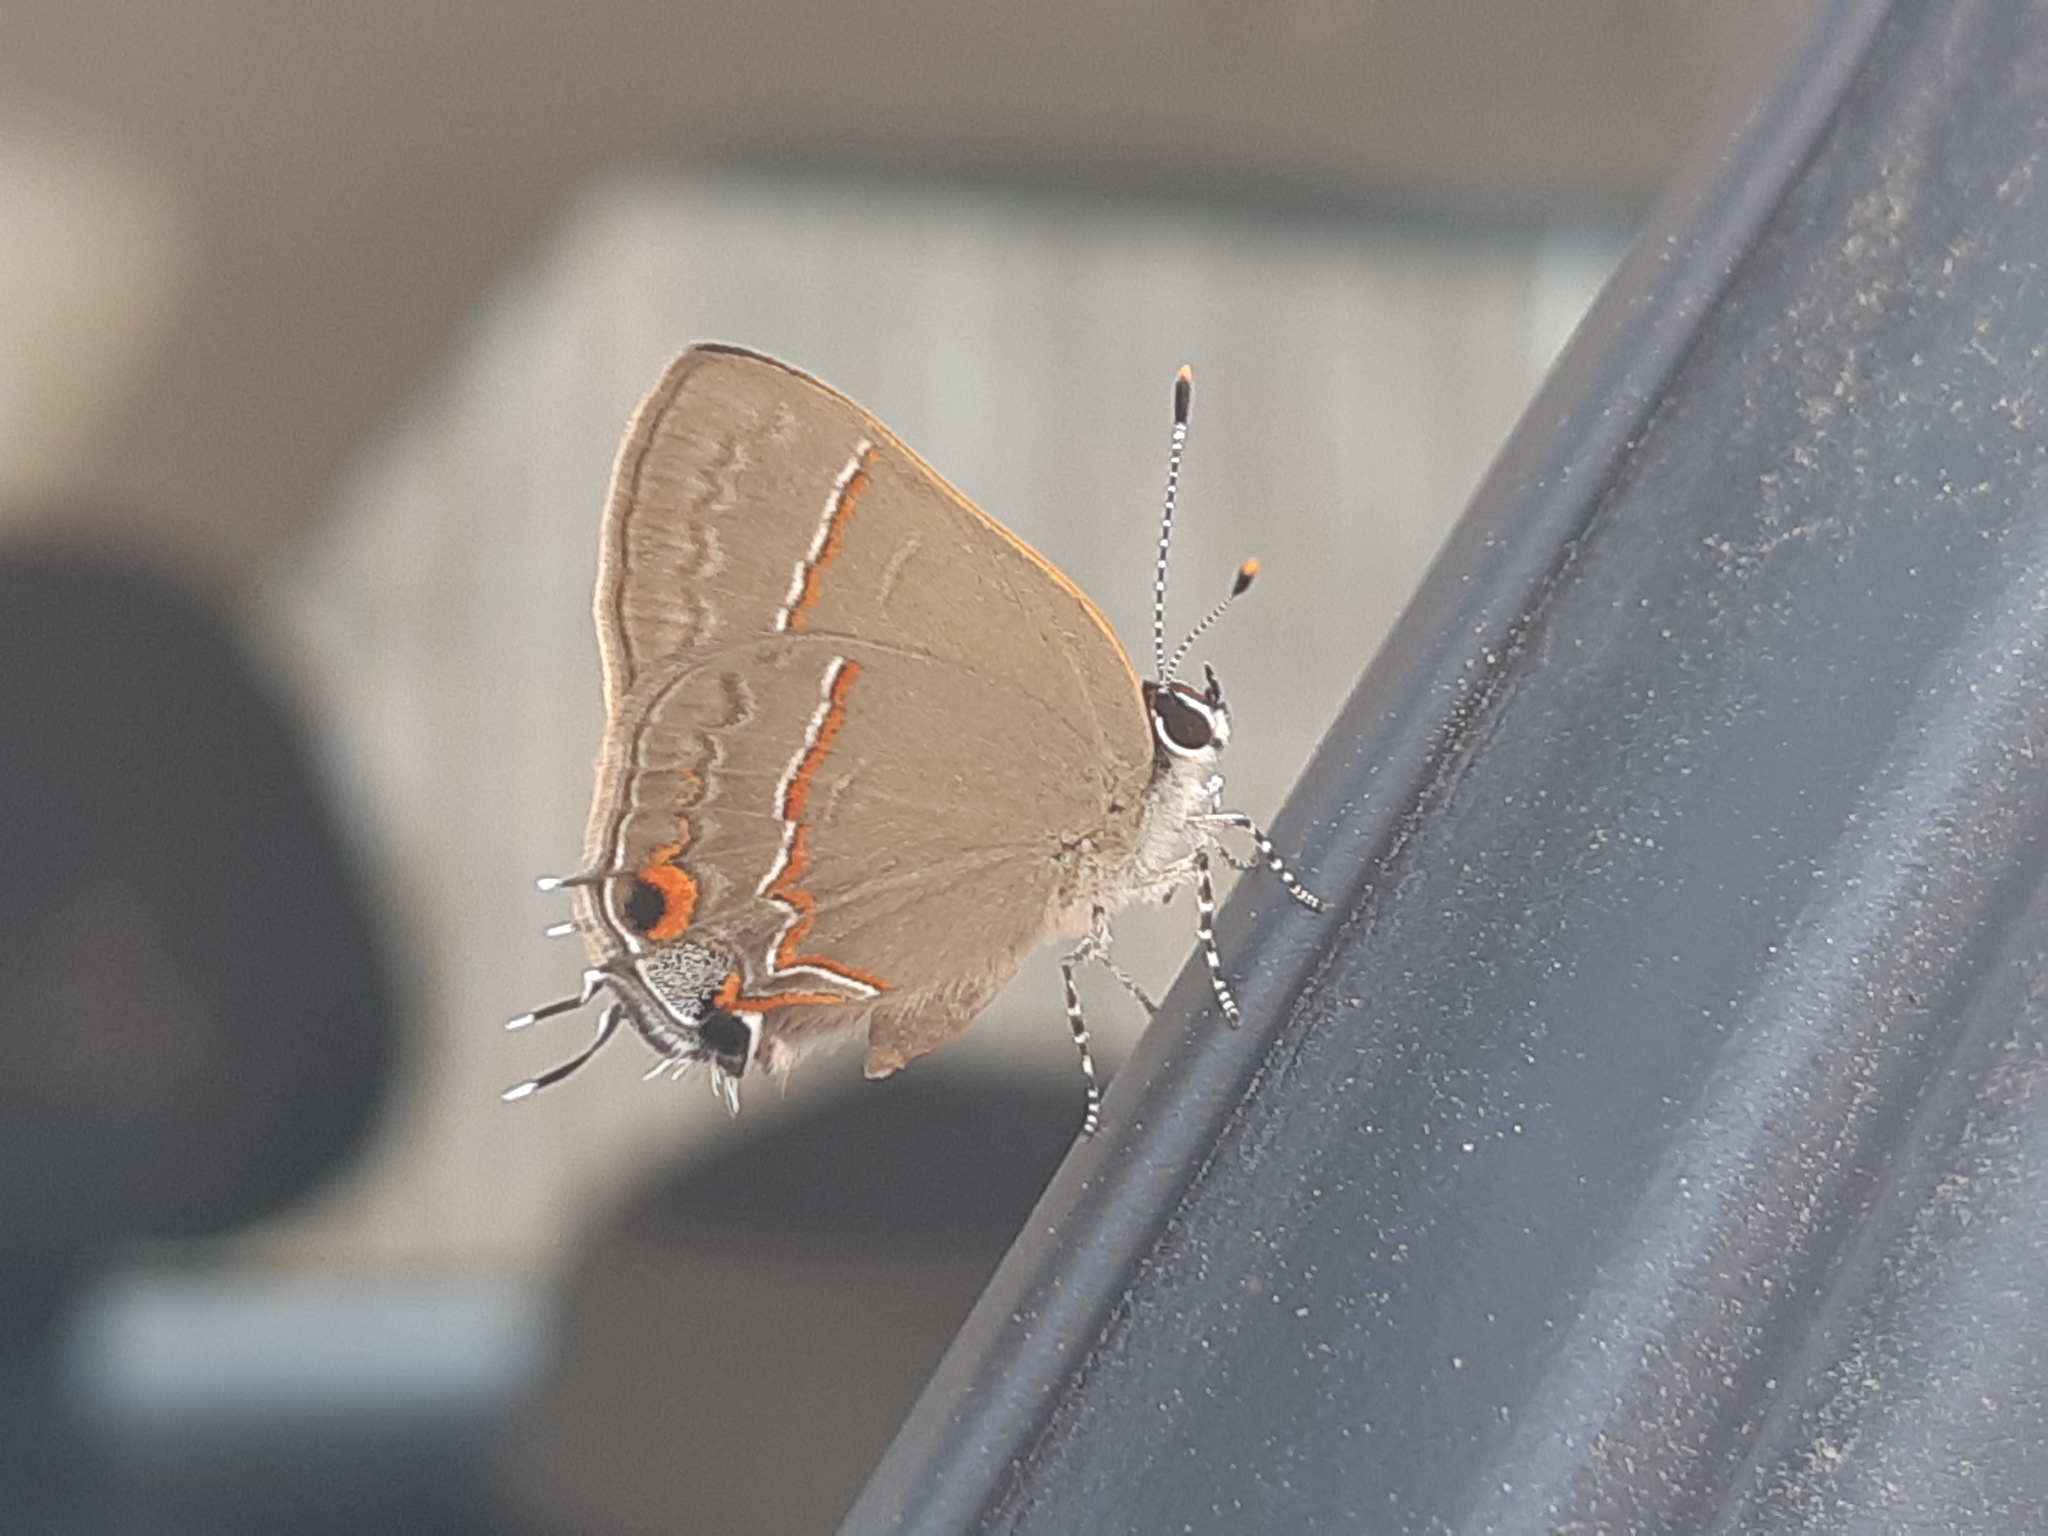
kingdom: Animalia
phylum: Arthropoda
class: Insecta
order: Lepidoptera
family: Lycaenidae
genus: Electrostrymon
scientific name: Electrostrymon endymion
